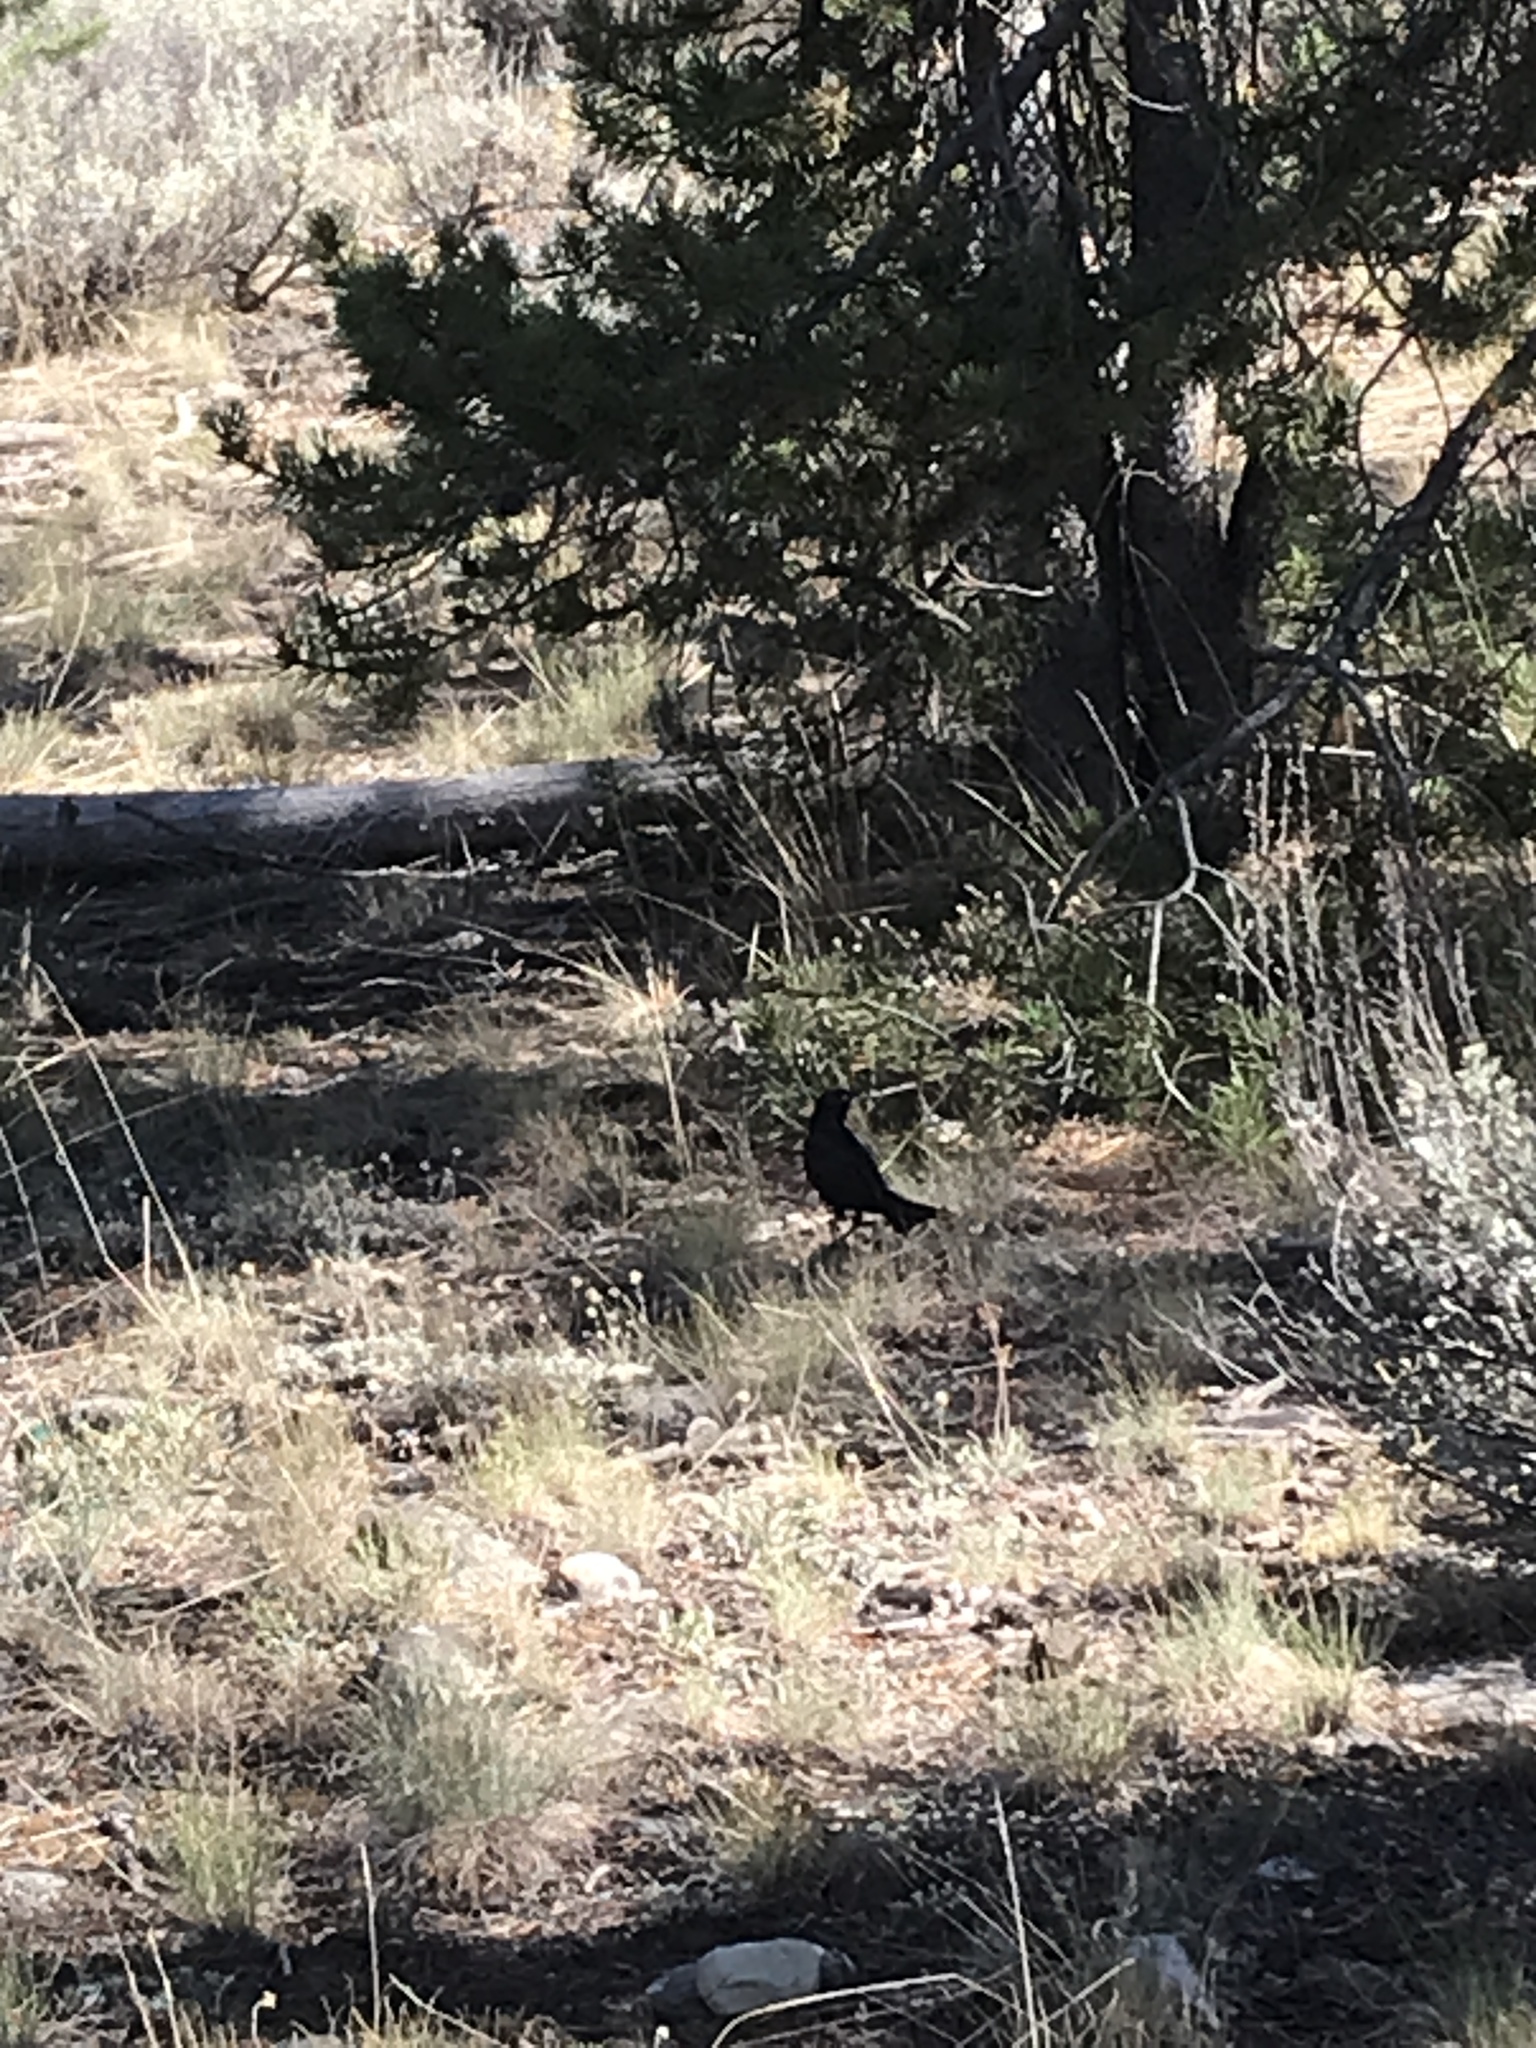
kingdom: Animalia
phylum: Chordata
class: Aves
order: Passeriformes
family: Icteridae
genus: Euphagus
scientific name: Euphagus cyanocephalus
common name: Brewer's blackbird
